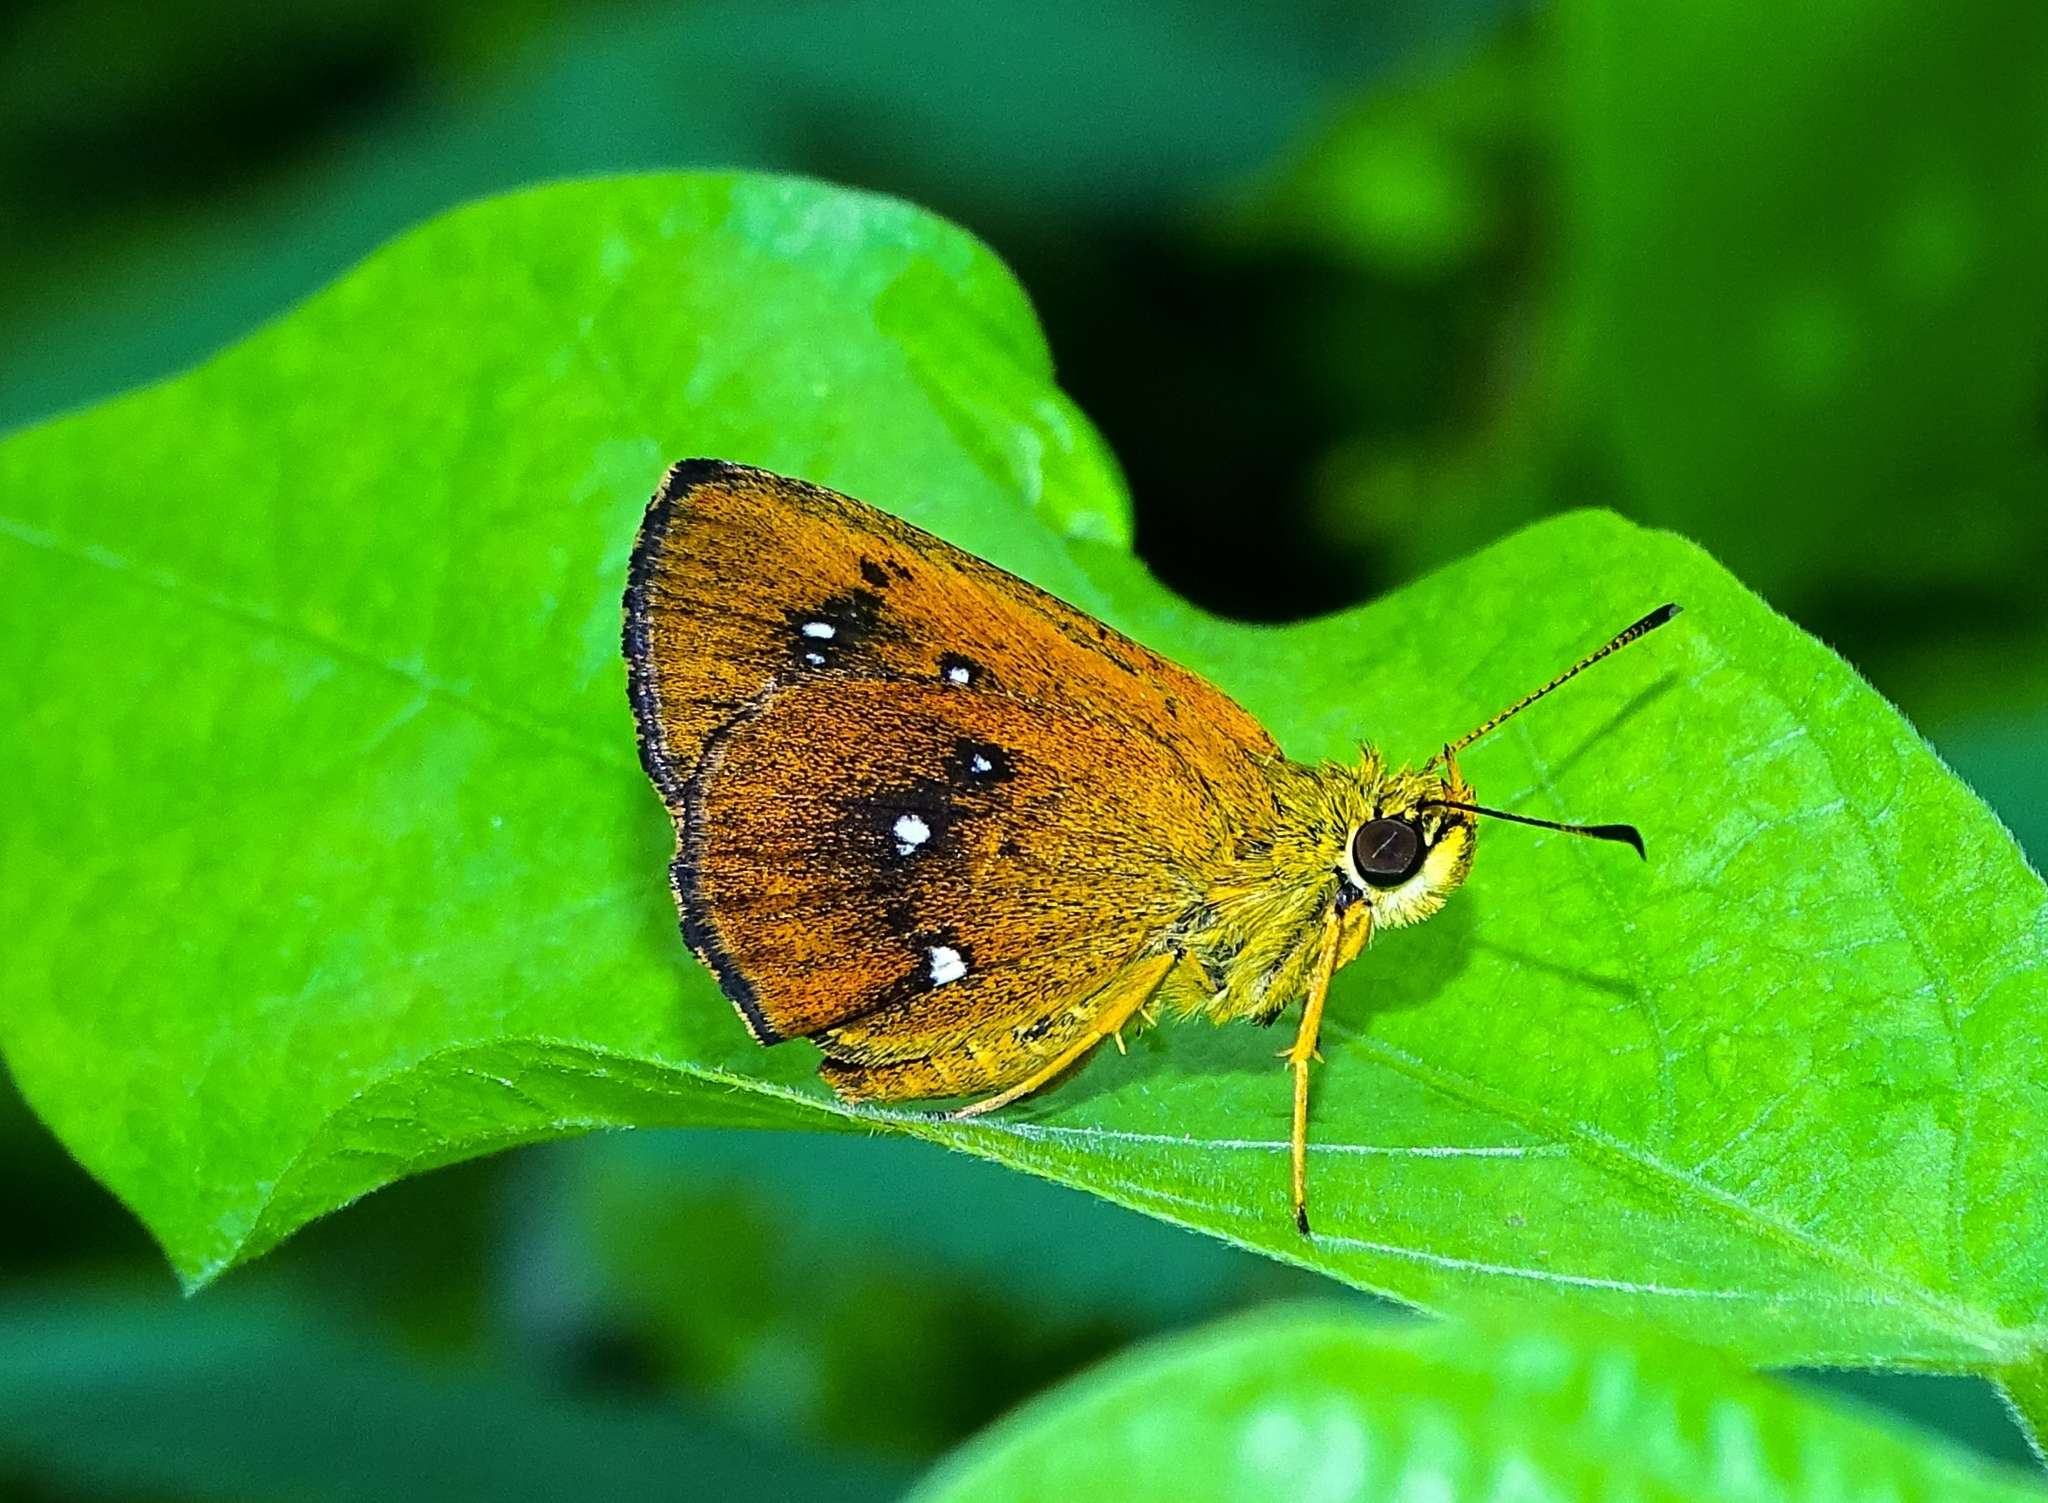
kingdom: Animalia
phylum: Arthropoda
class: Insecta
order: Lepidoptera
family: Hesperiidae
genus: Iambrix
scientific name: Iambrix salsala
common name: Chestnut bob
